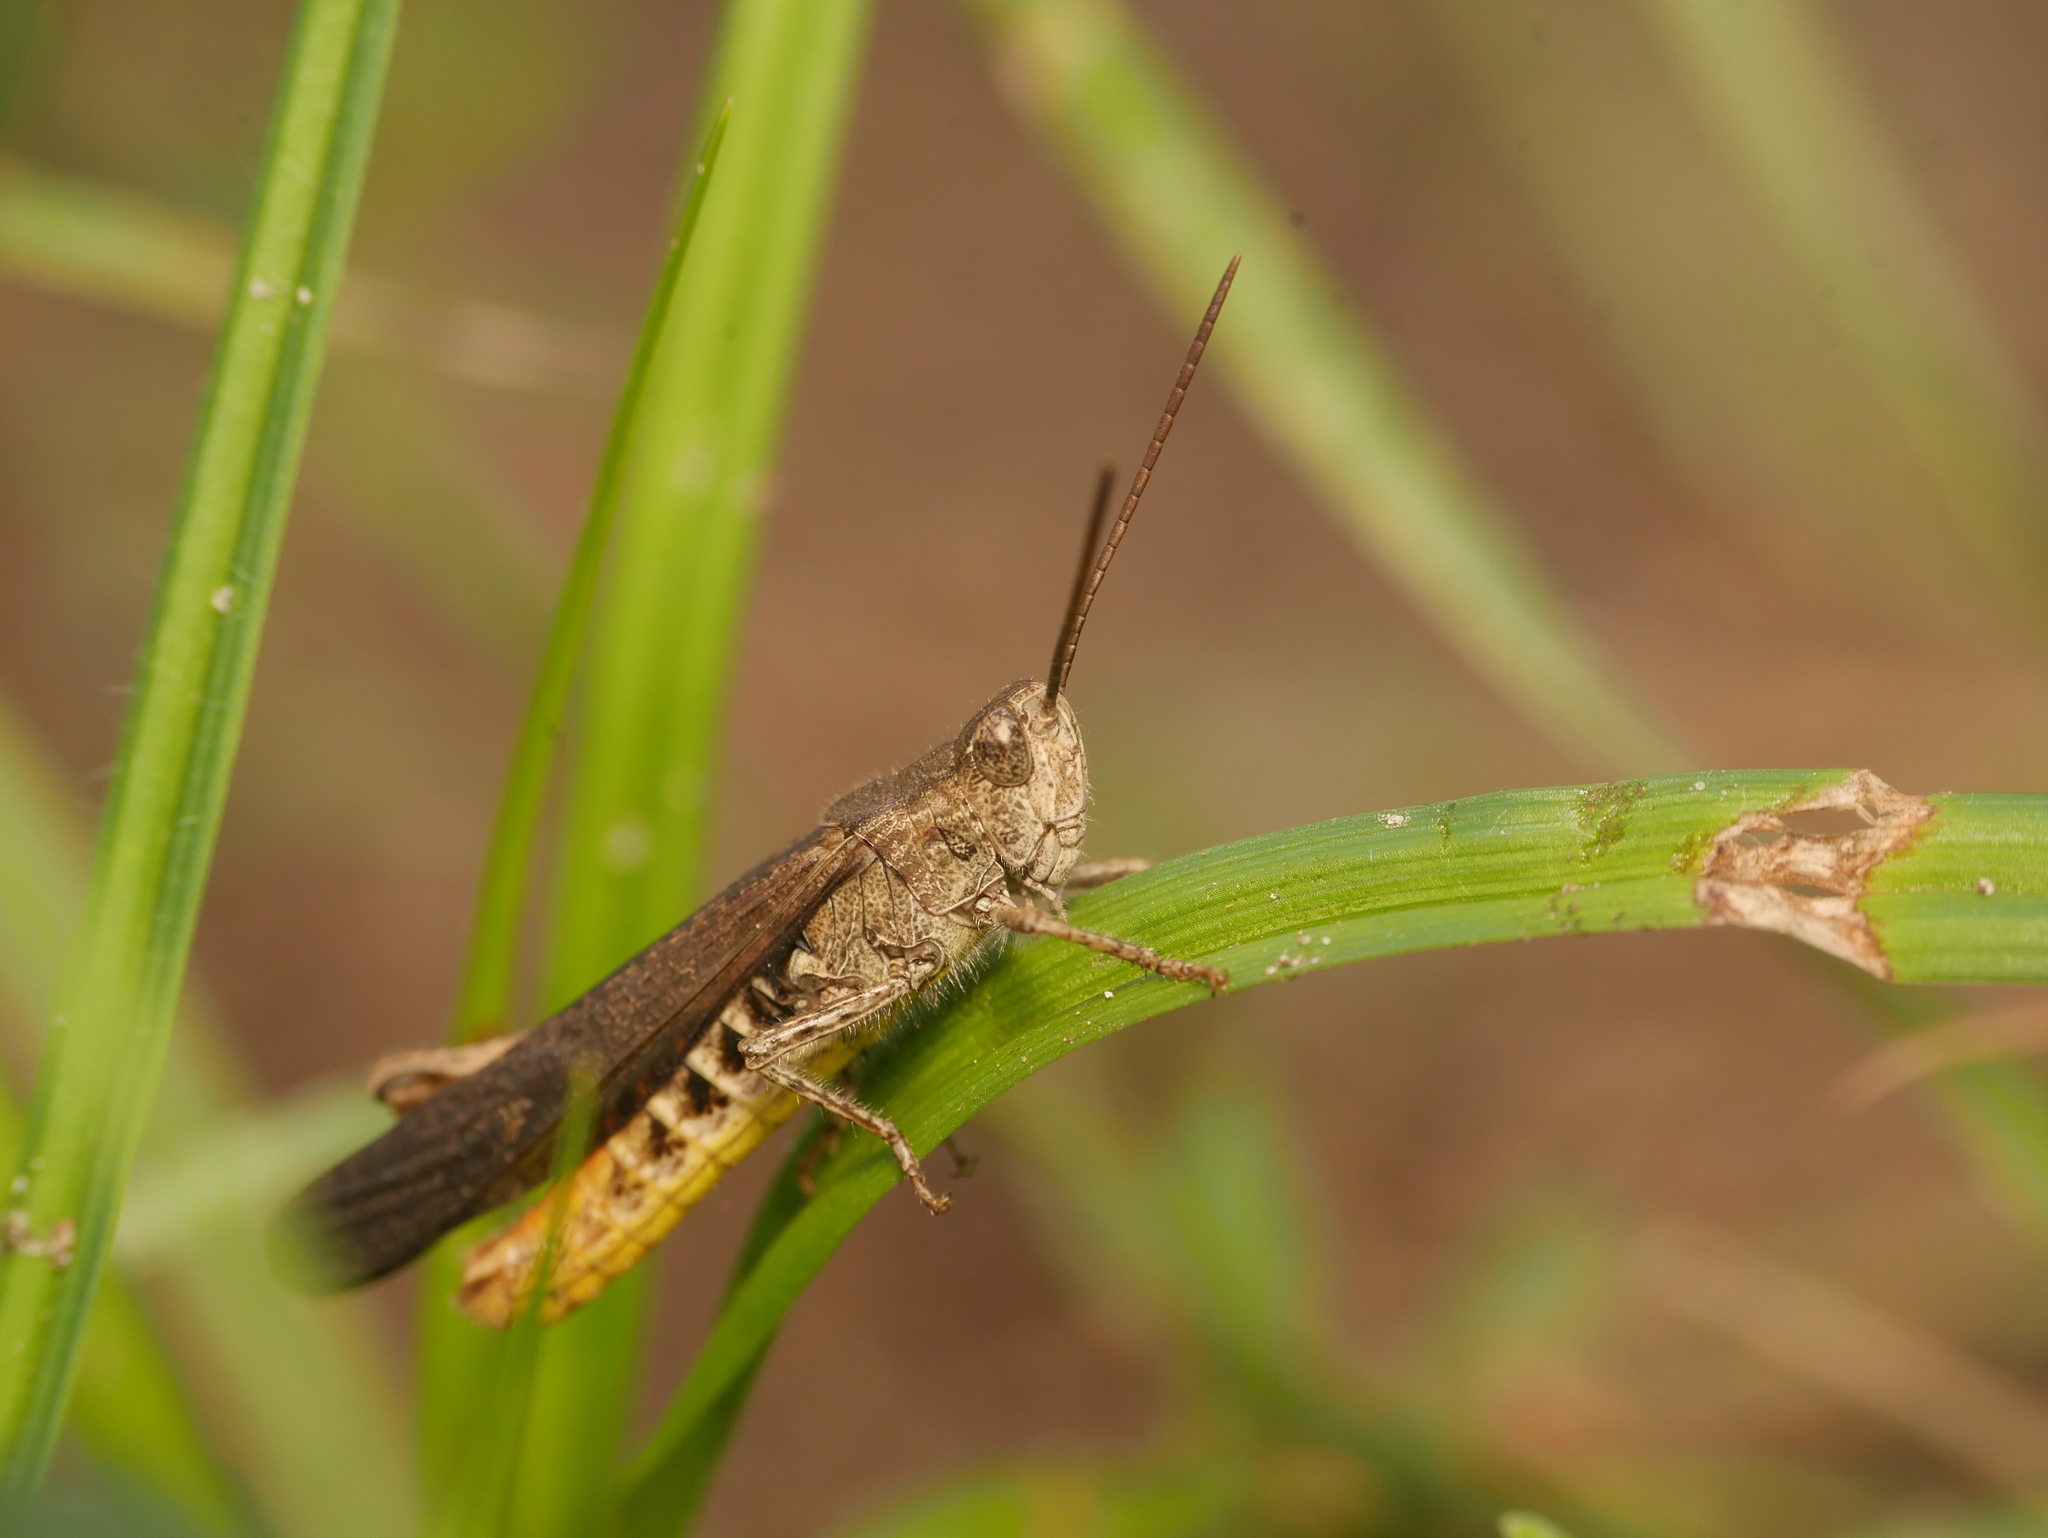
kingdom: Animalia
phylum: Arthropoda
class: Insecta
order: Orthoptera
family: Acrididae
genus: Chorthippus
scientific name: Chorthippus brunneus
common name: Field grasshopper
